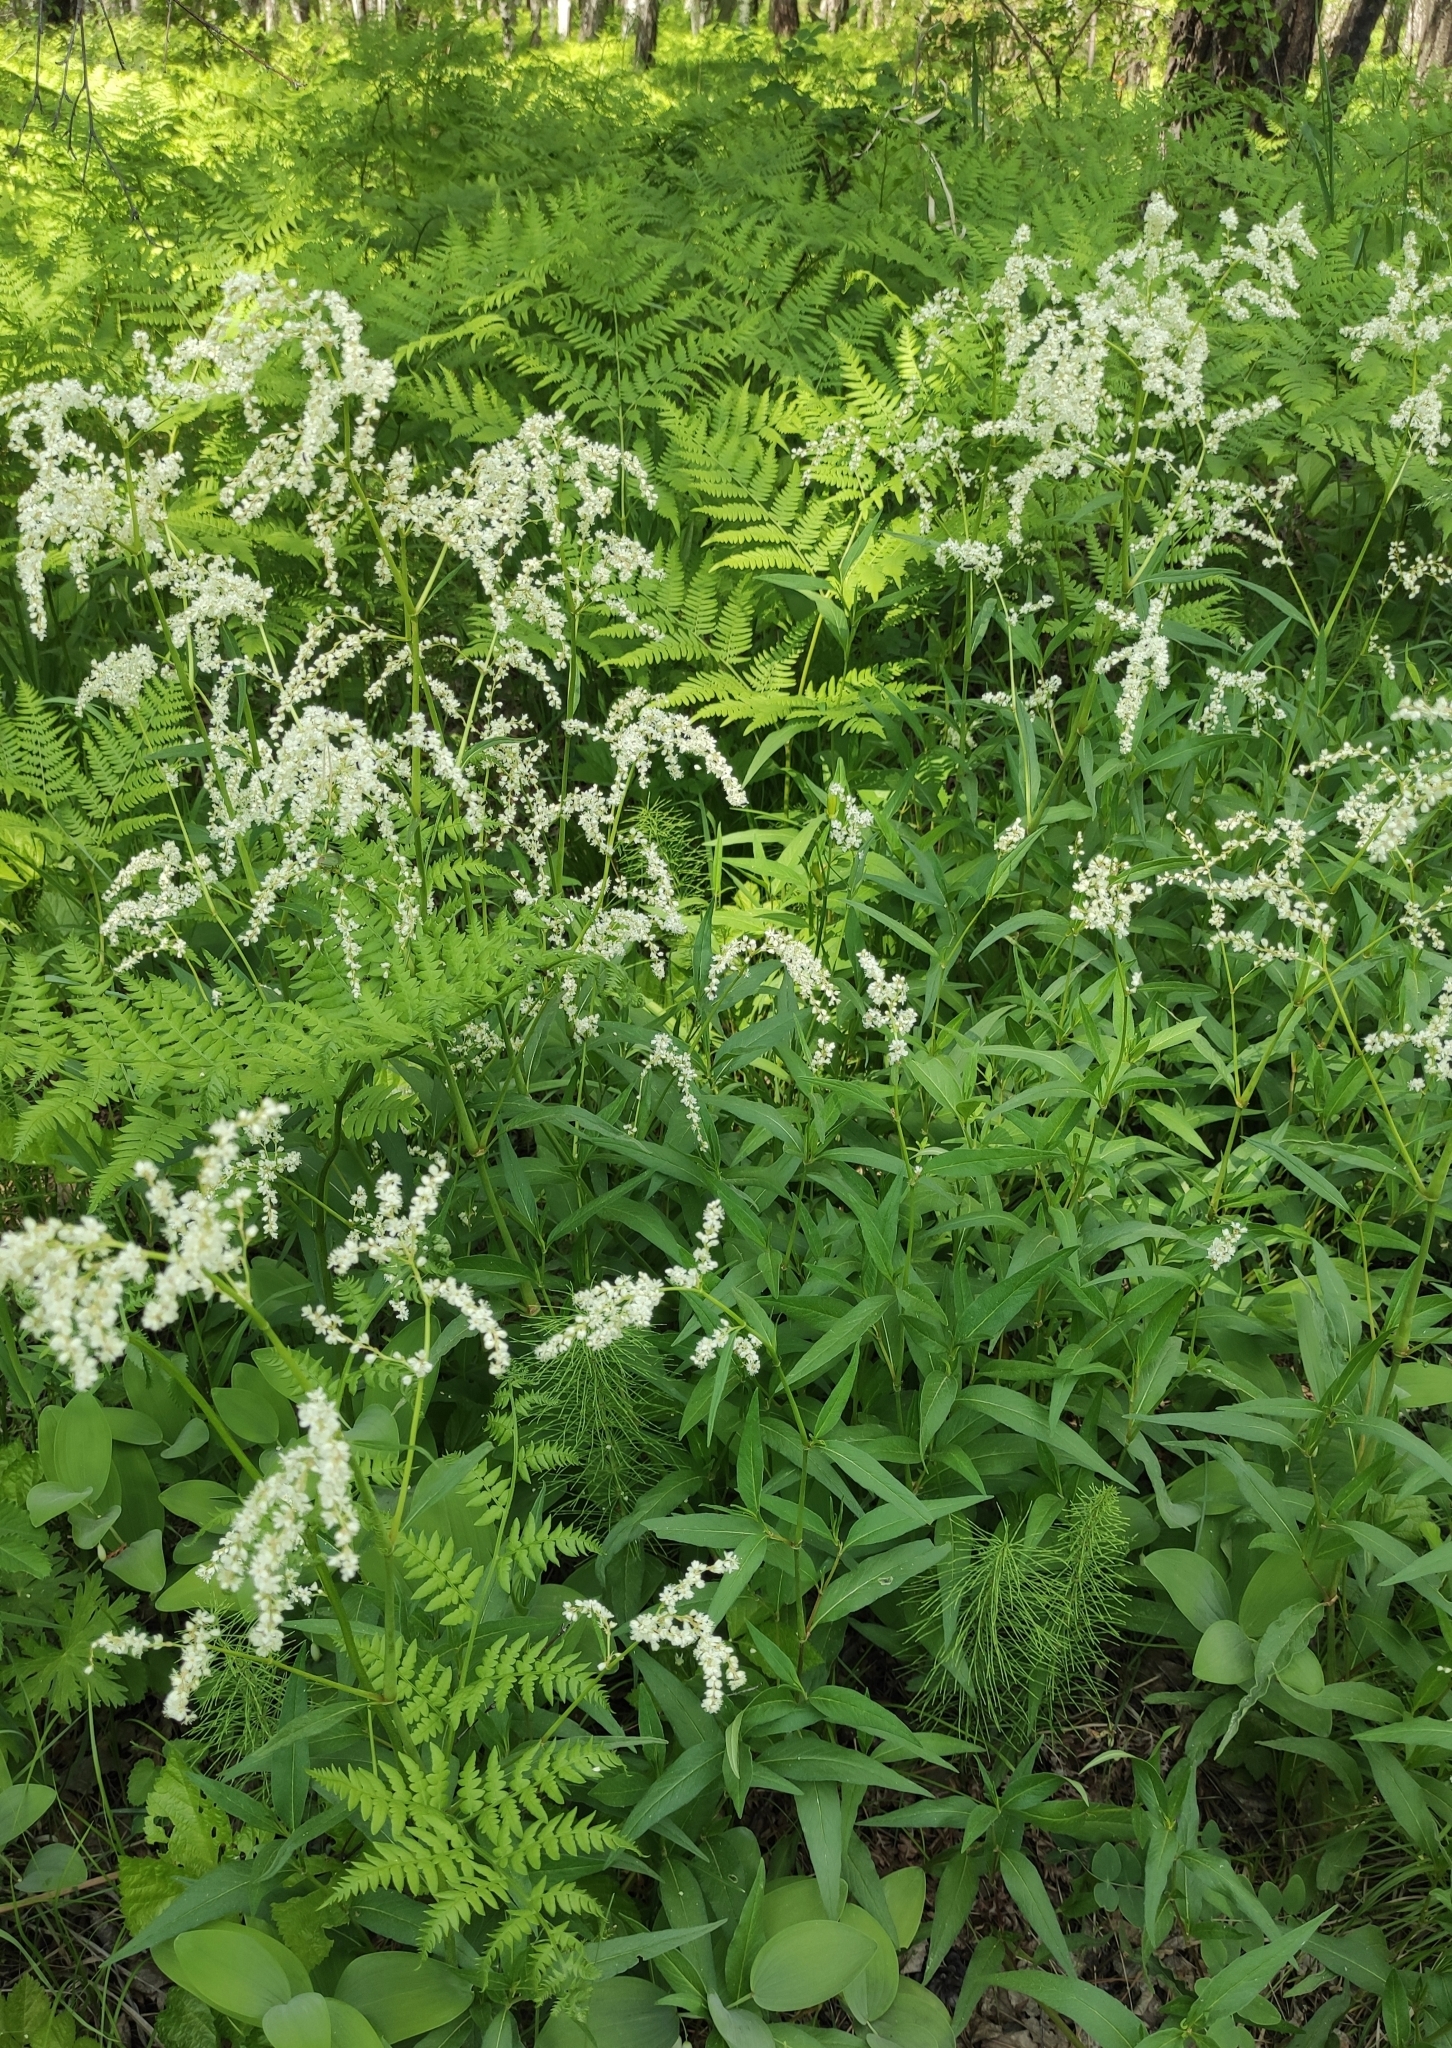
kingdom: Plantae
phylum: Tracheophyta
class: Magnoliopsida
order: Caryophyllales
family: Polygonaceae
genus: Koenigia
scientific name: Koenigia alpina
